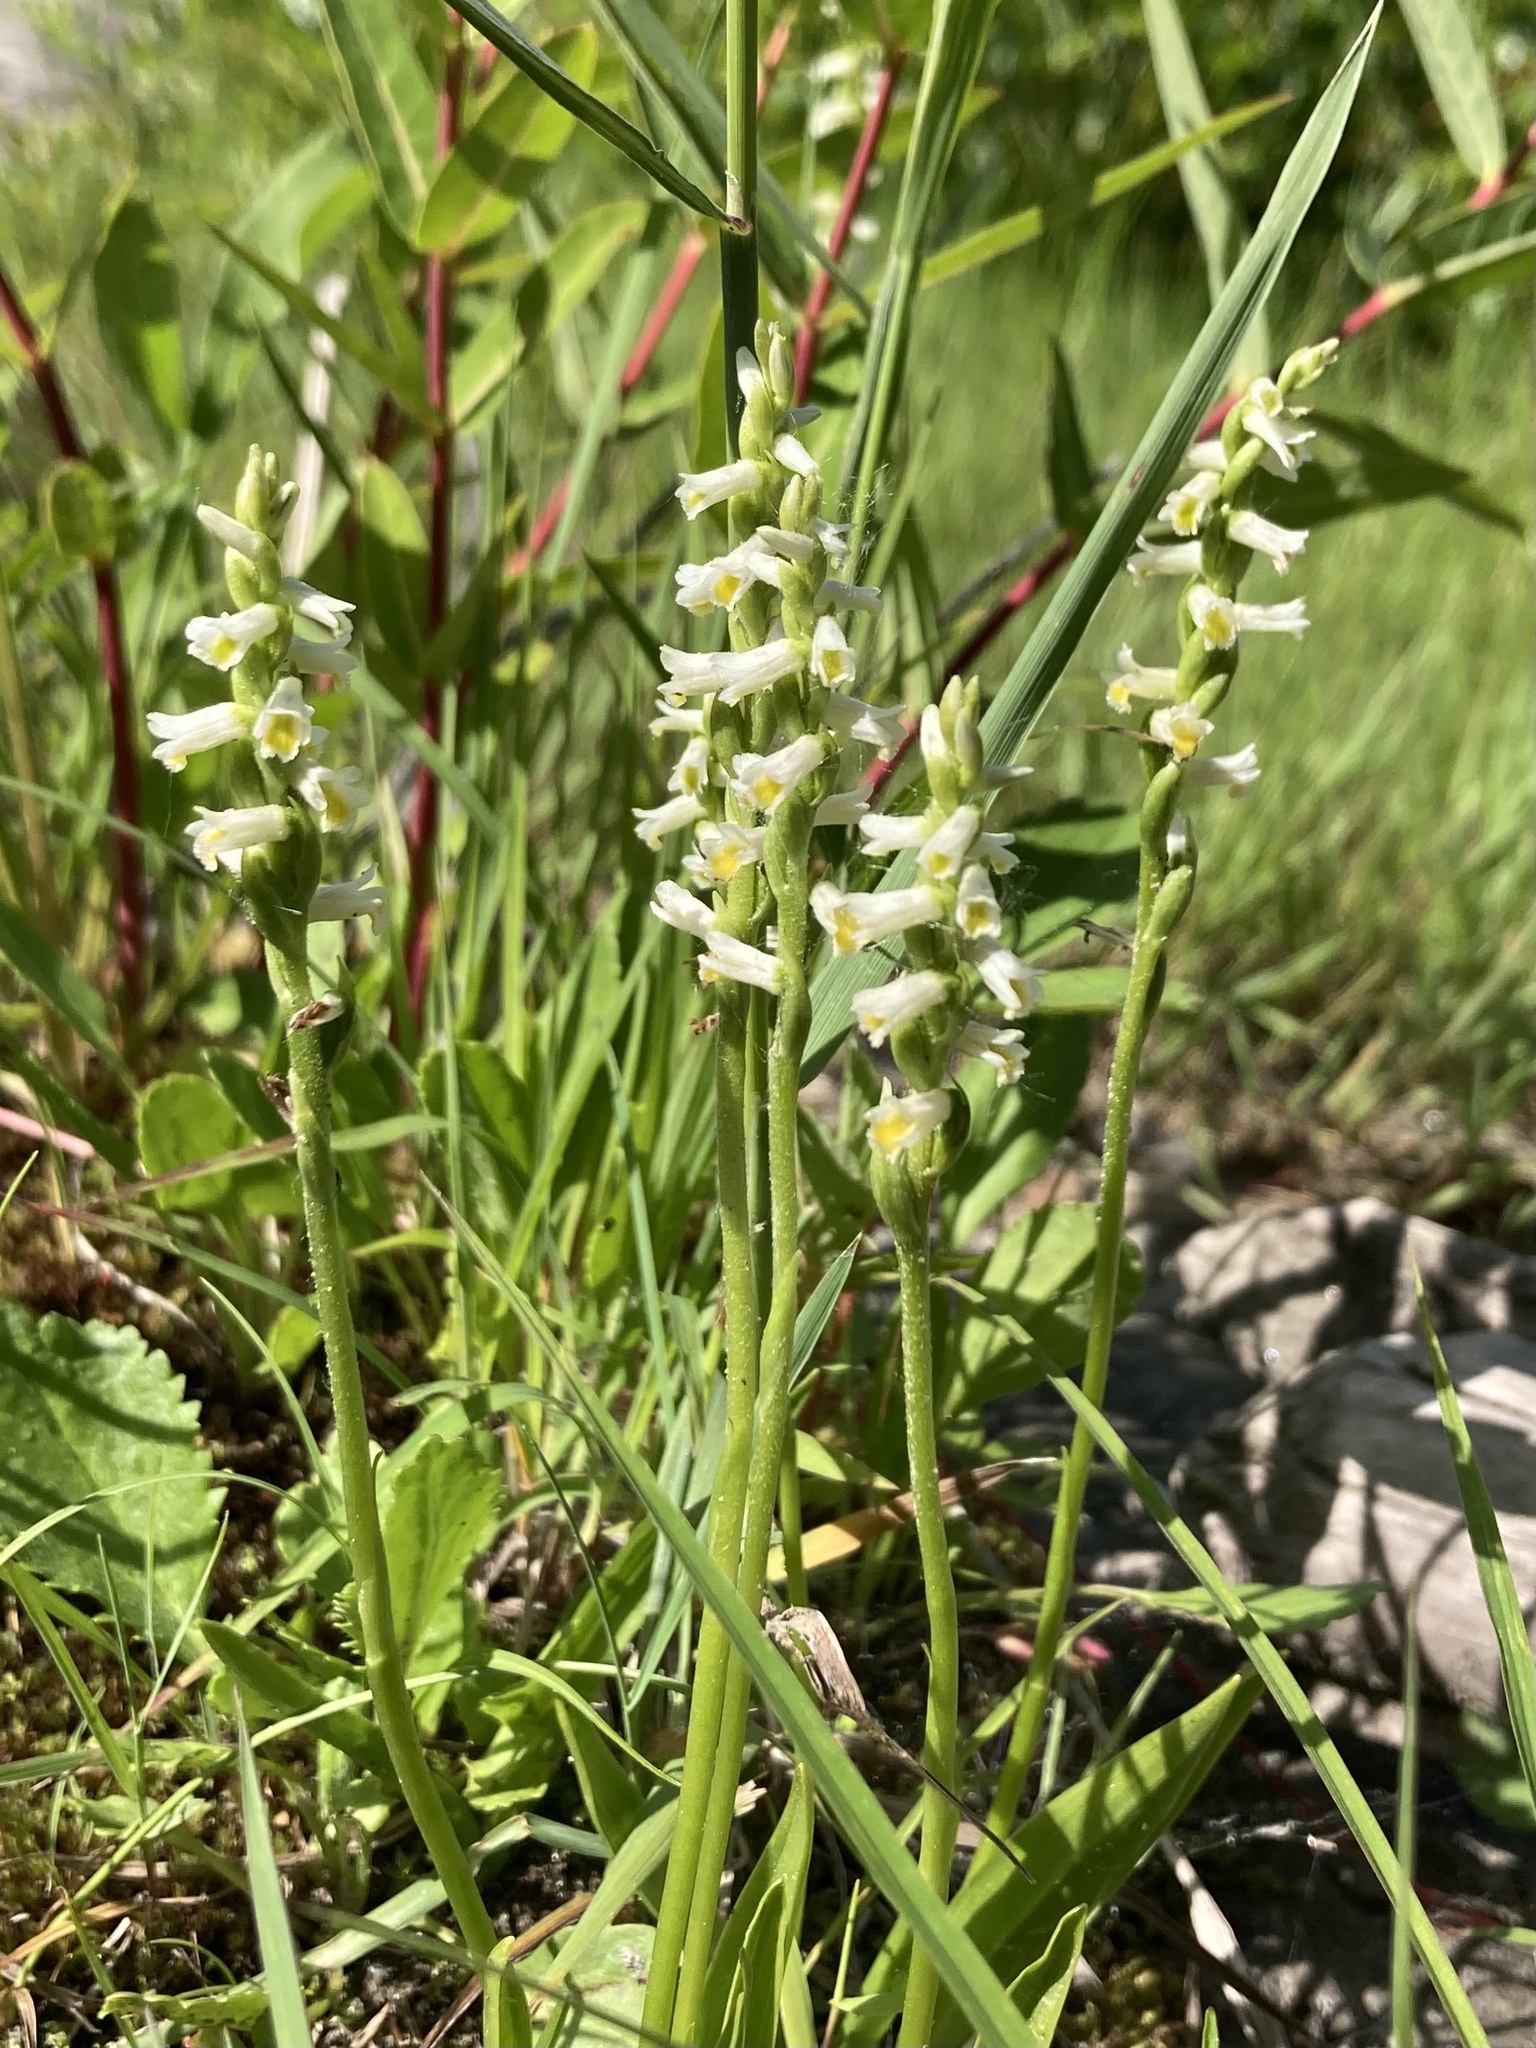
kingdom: Plantae
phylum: Tracheophyta
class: Liliopsida
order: Asparagales
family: Orchidaceae
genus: Spiranthes
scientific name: Spiranthes lucida
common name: Broad-leaved ladies'-tresses
